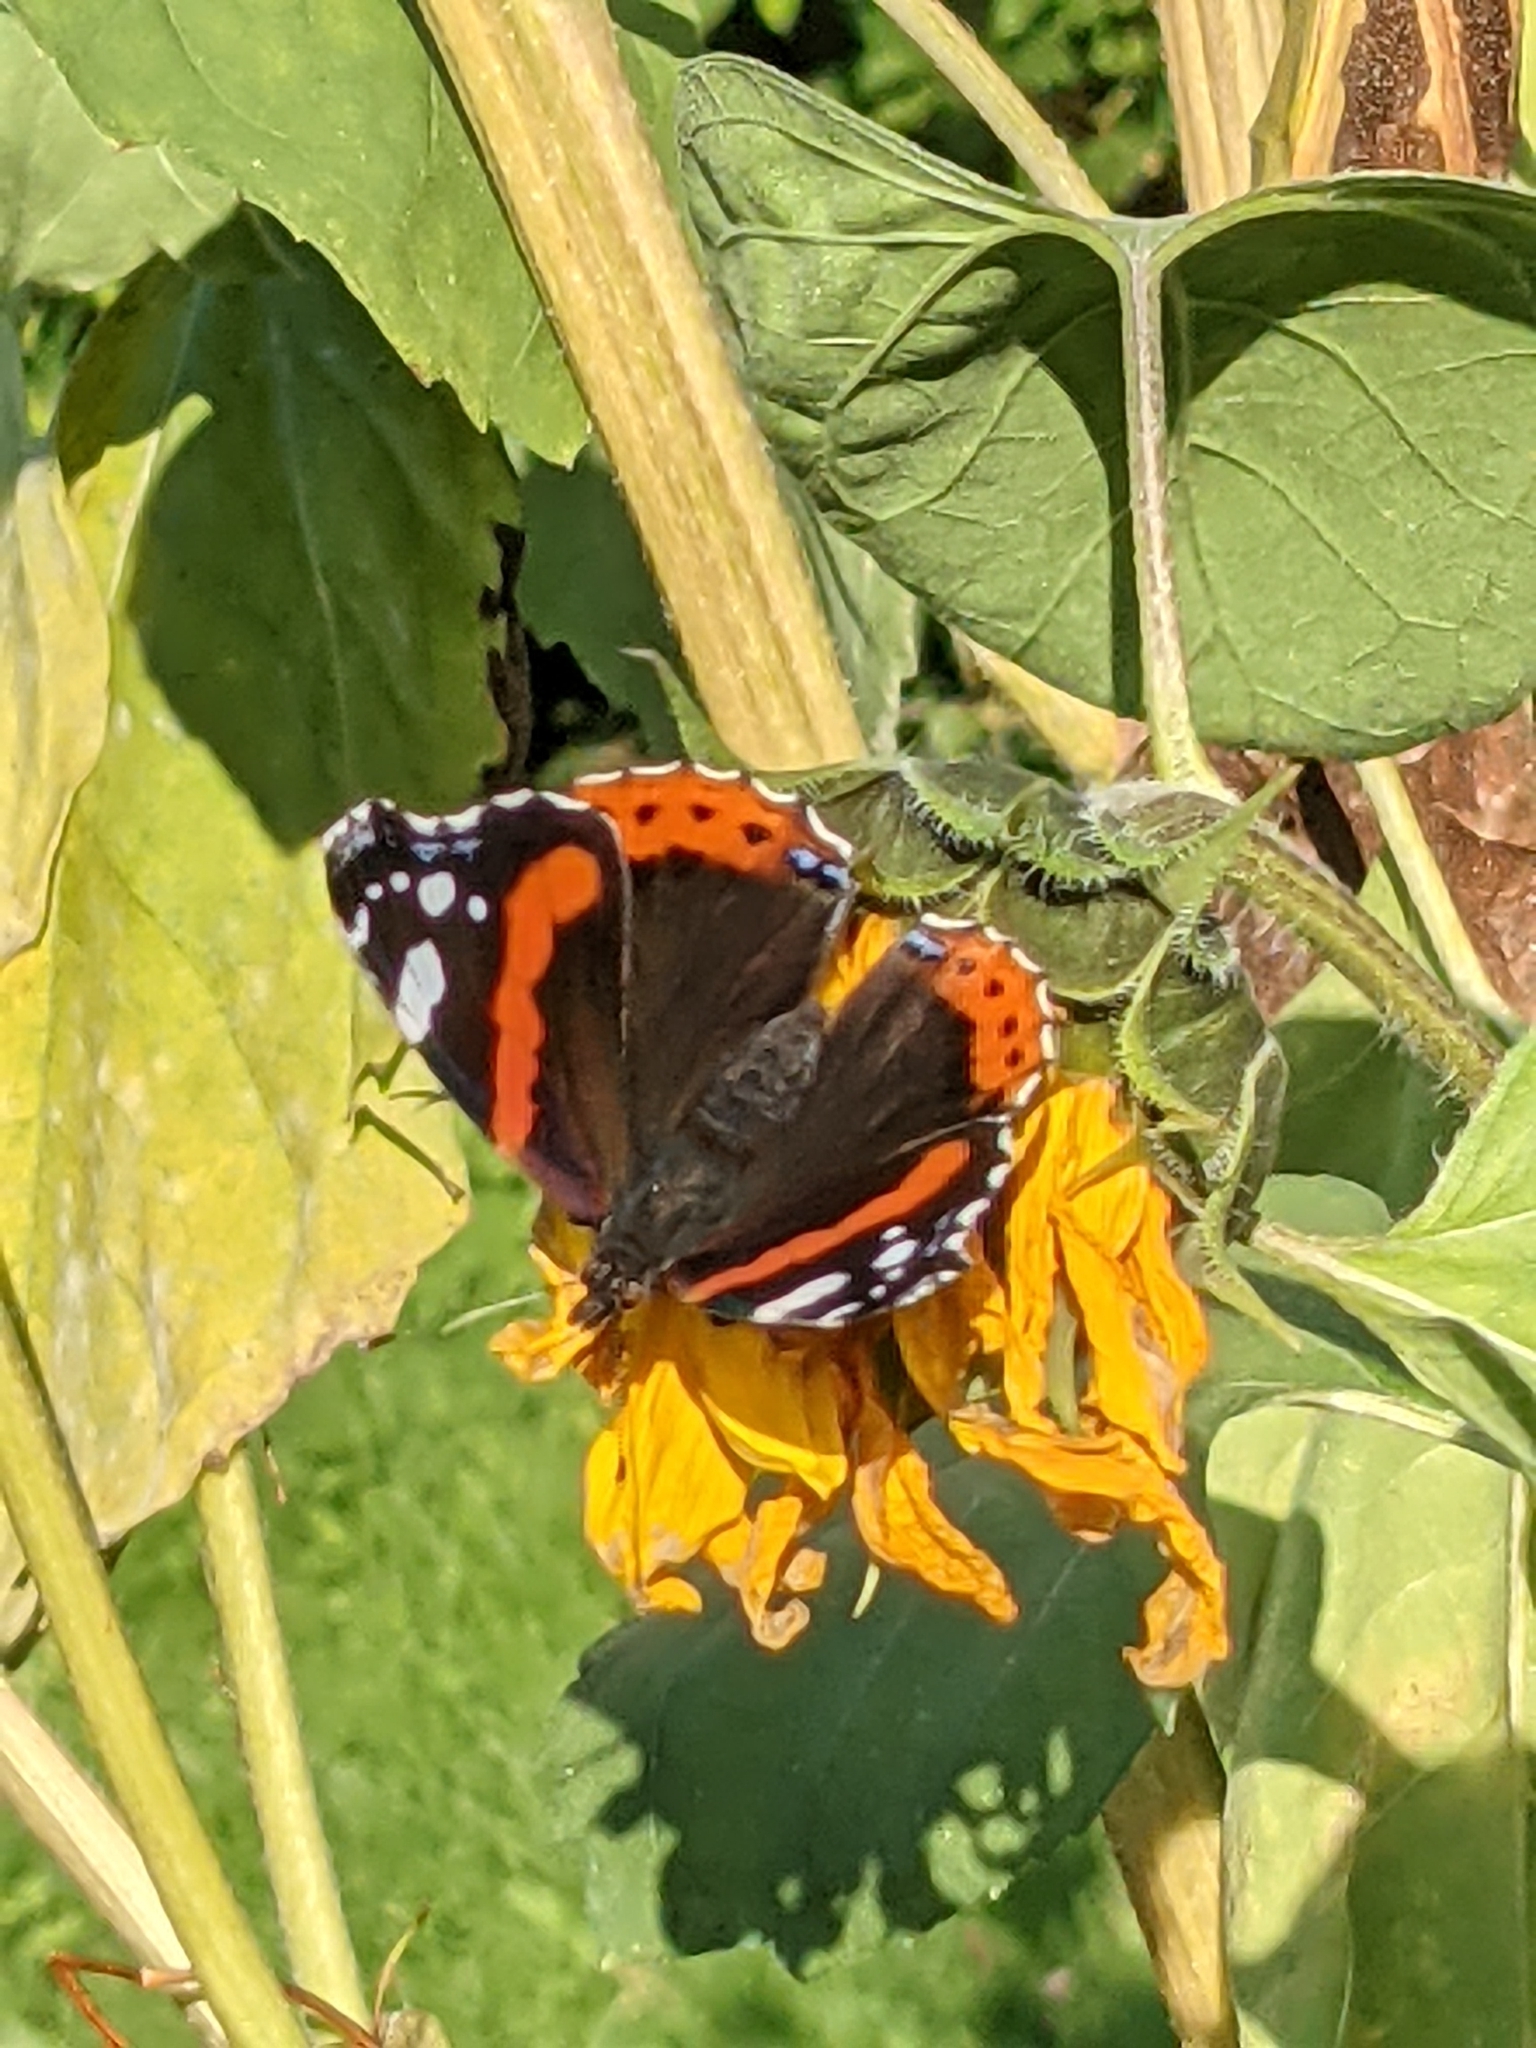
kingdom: Animalia
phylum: Arthropoda
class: Insecta
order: Lepidoptera
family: Nymphalidae
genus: Vanessa
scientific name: Vanessa atalanta
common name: Red admiral
